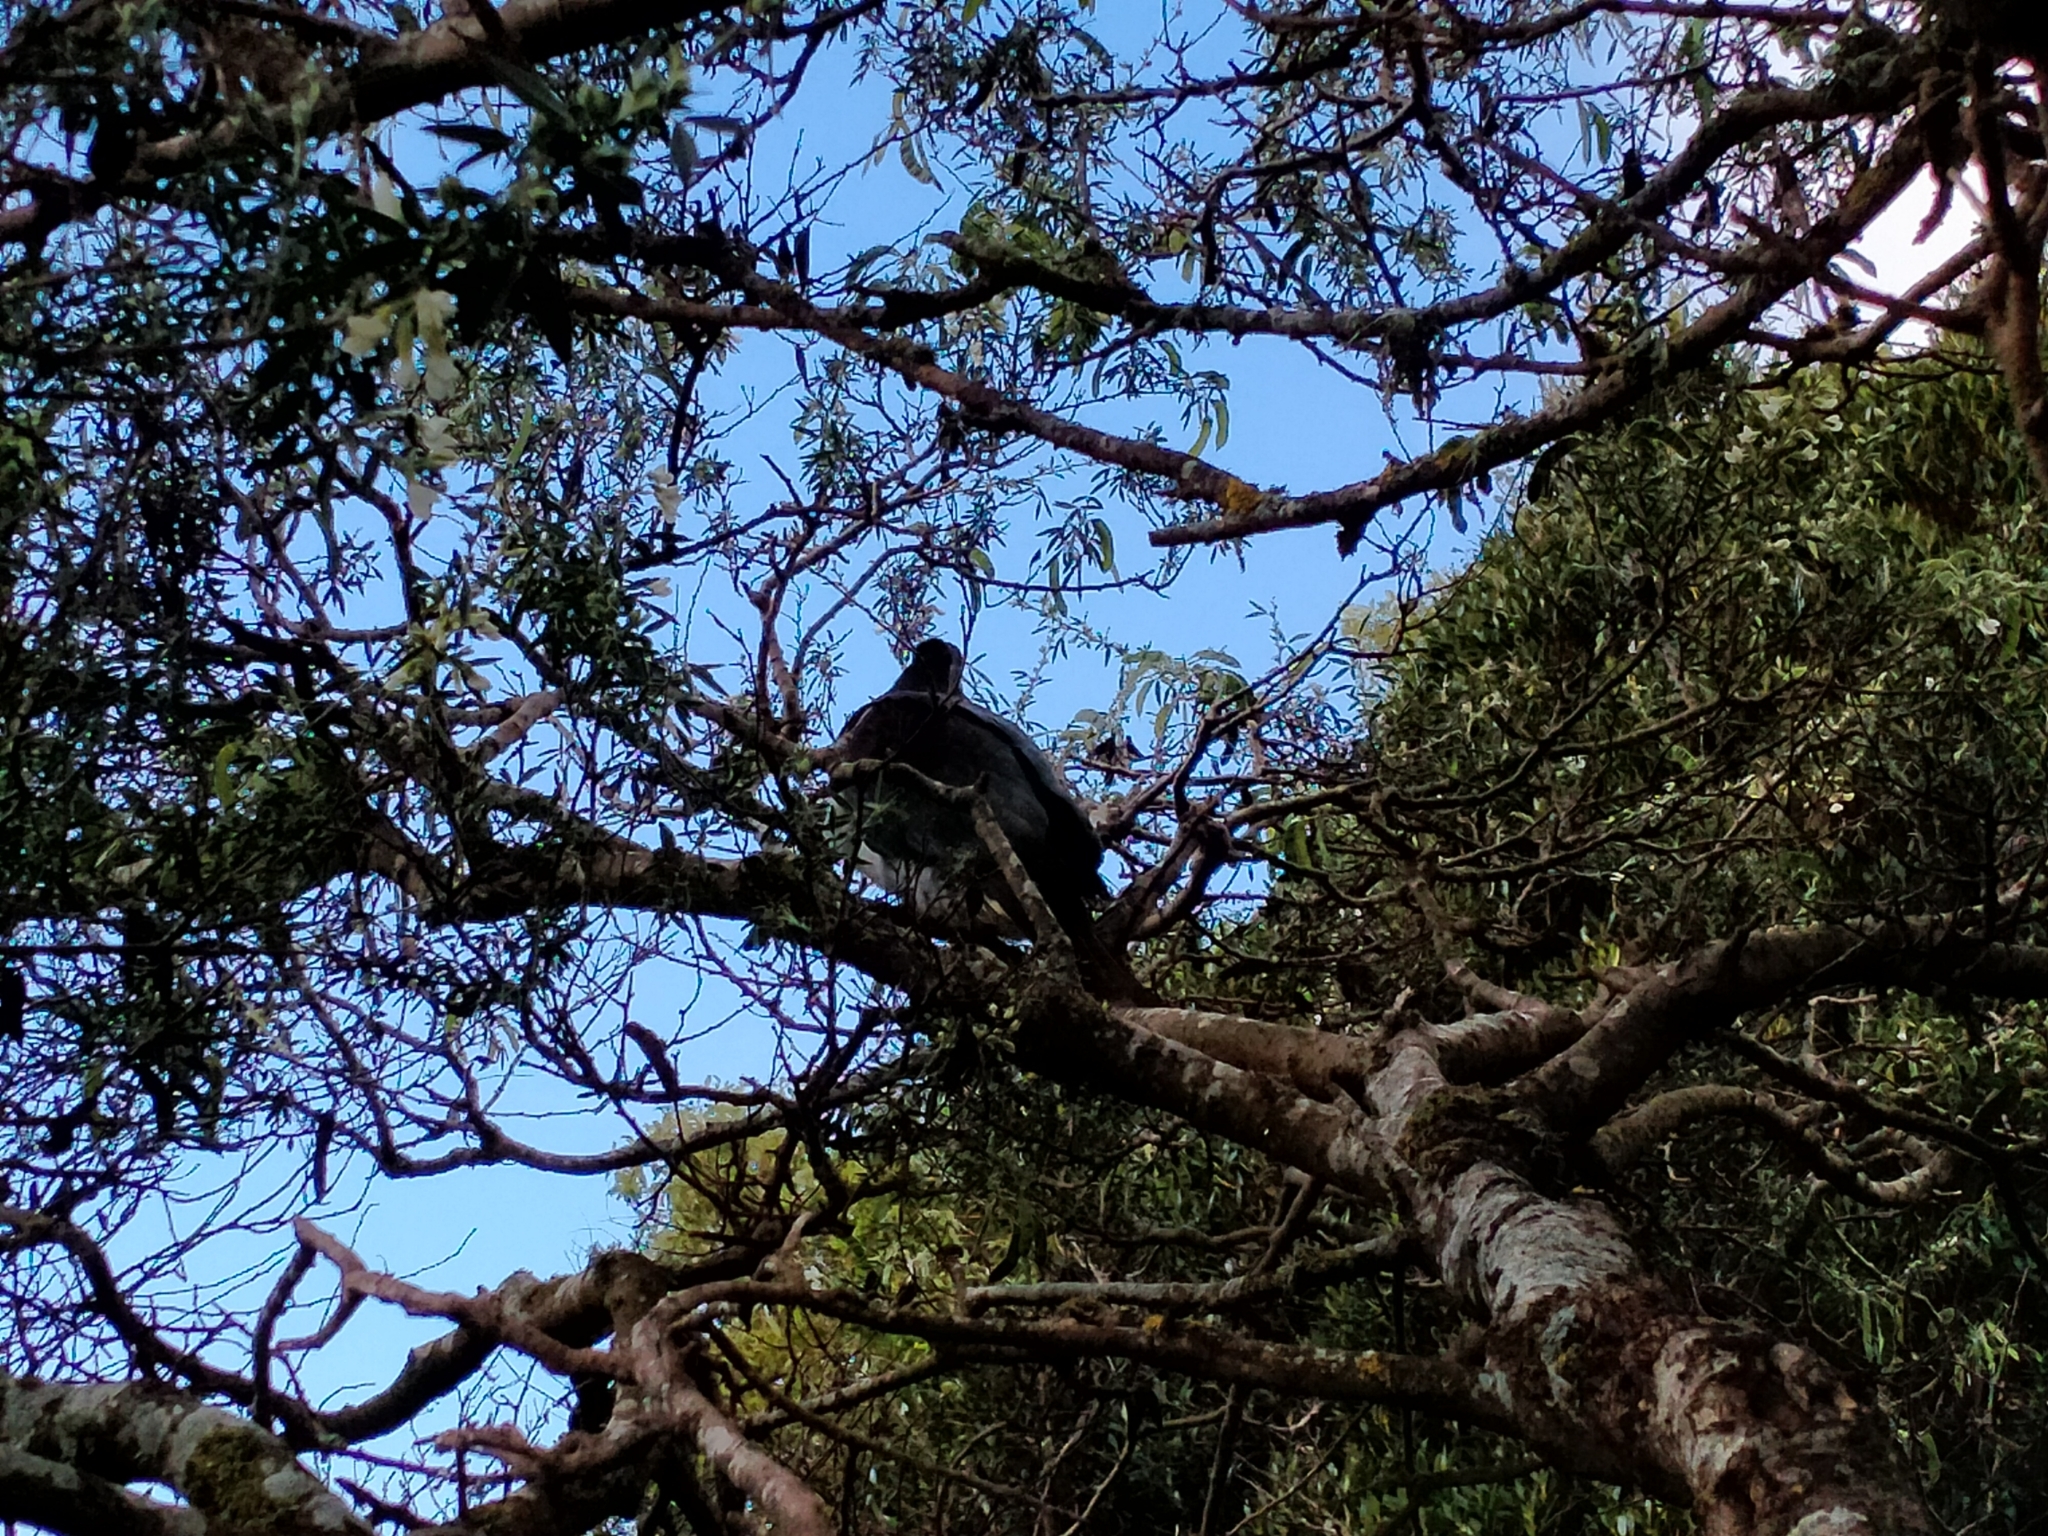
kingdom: Animalia
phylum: Chordata
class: Aves
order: Columbiformes
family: Columbidae
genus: Hemiphaga
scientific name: Hemiphaga novaeseelandiae
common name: New zealand pigeon
